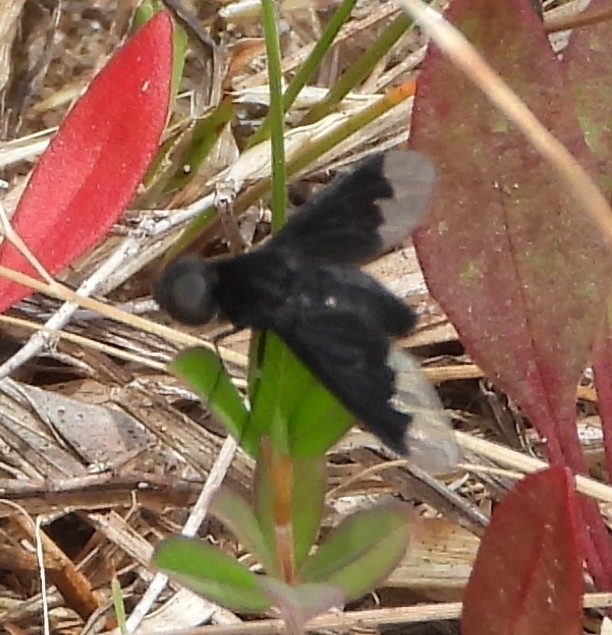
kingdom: Animalia
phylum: Arthropoda
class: Insecta
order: Diptera
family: Bombyliidae
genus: Anthrax
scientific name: Anthrax analis
